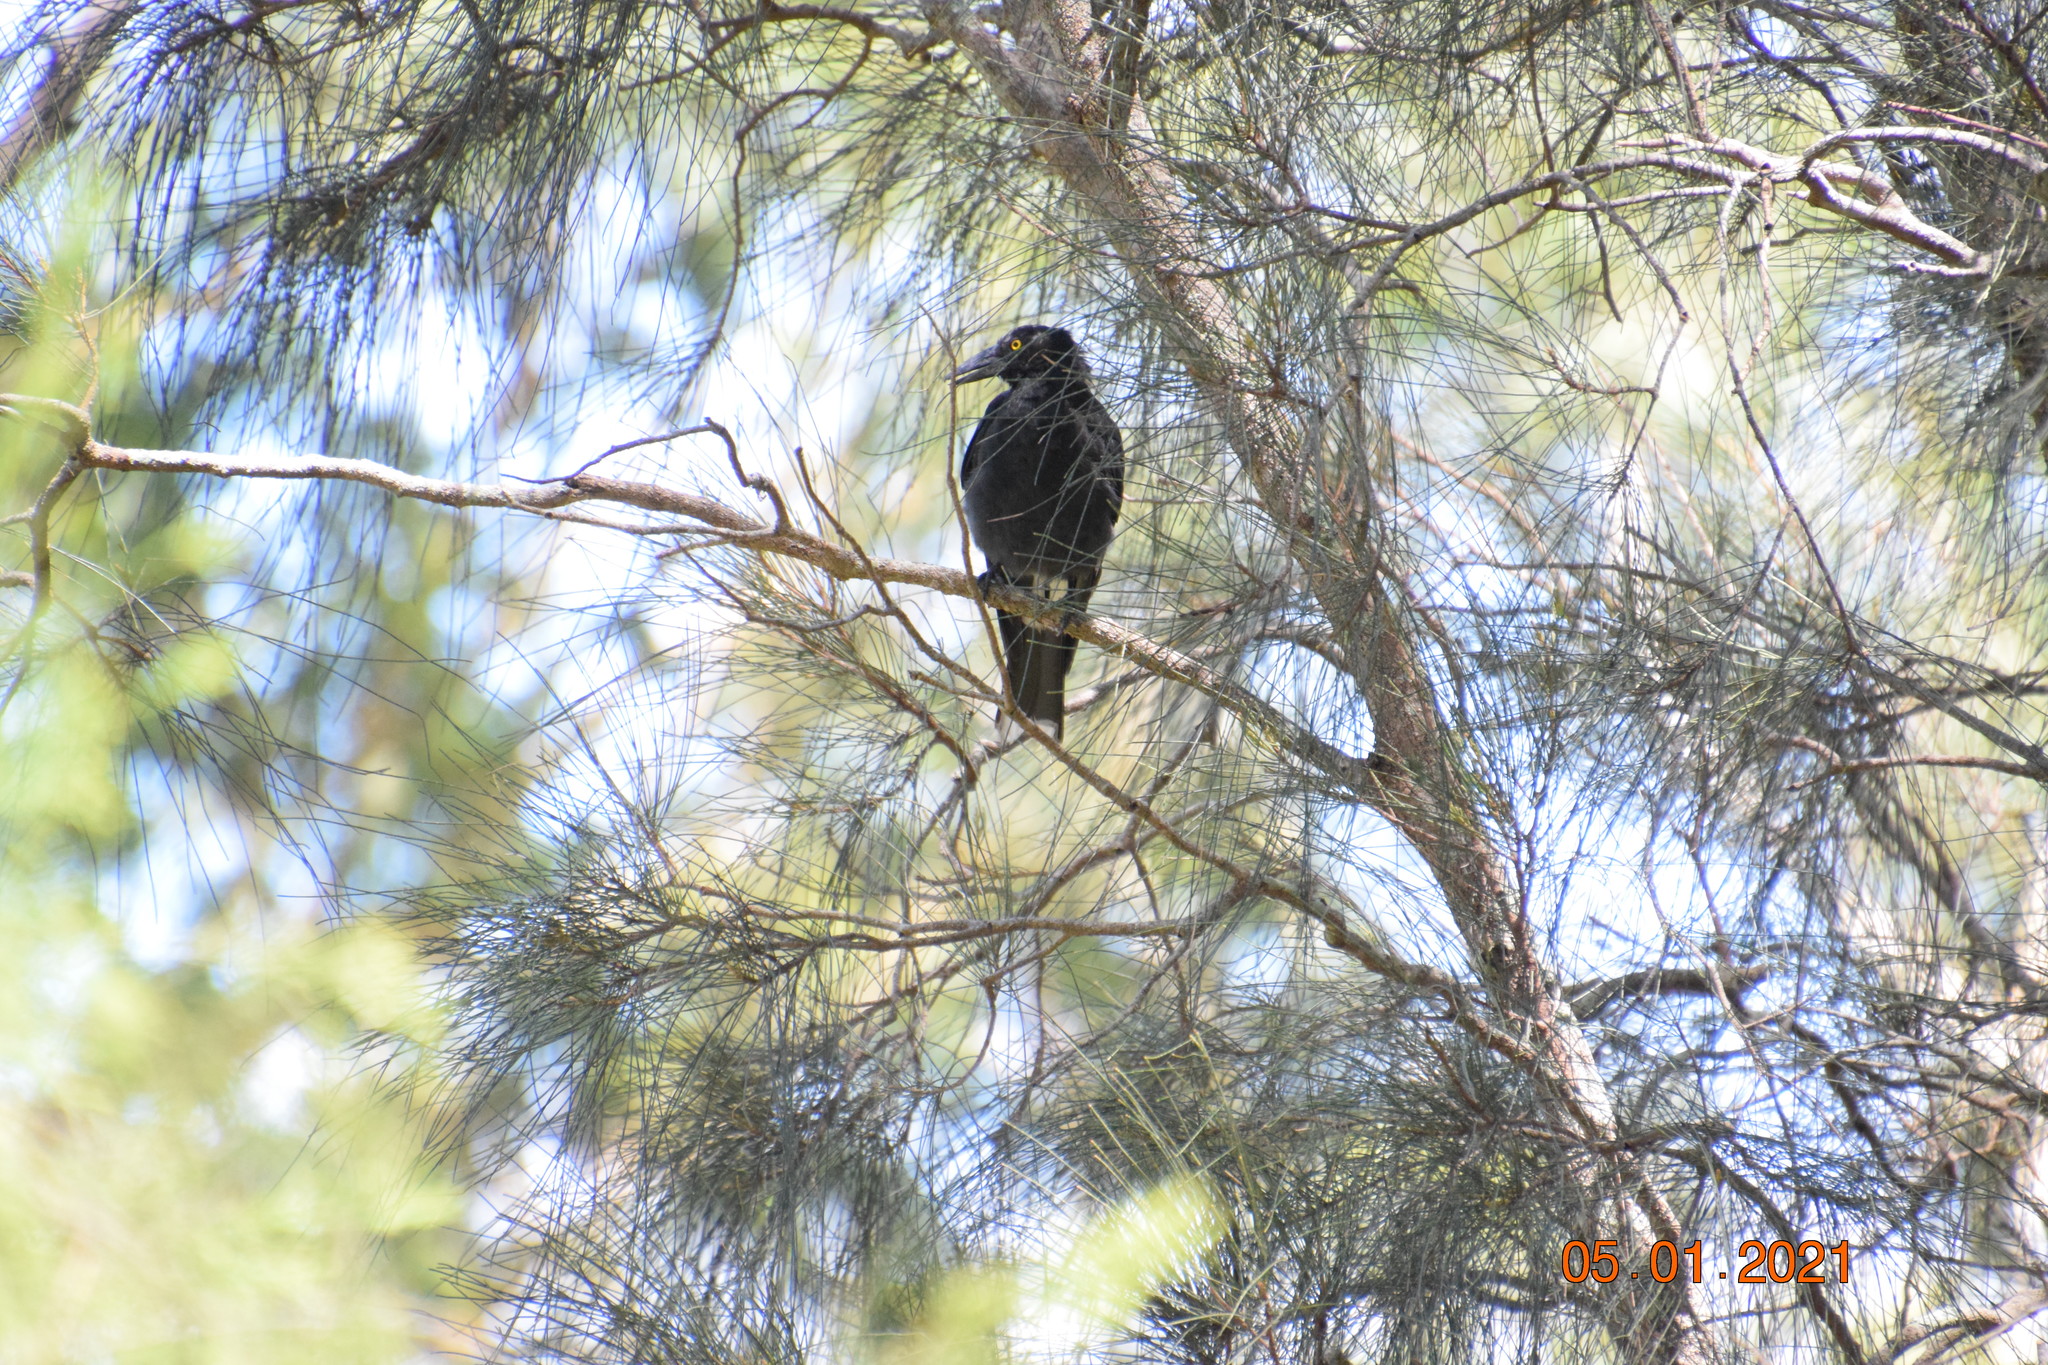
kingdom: Animalia
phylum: Chordata
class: Aves
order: Passeriformes
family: Cracticidae
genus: Strepera
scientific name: Strepera graculina
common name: Pied currawong
